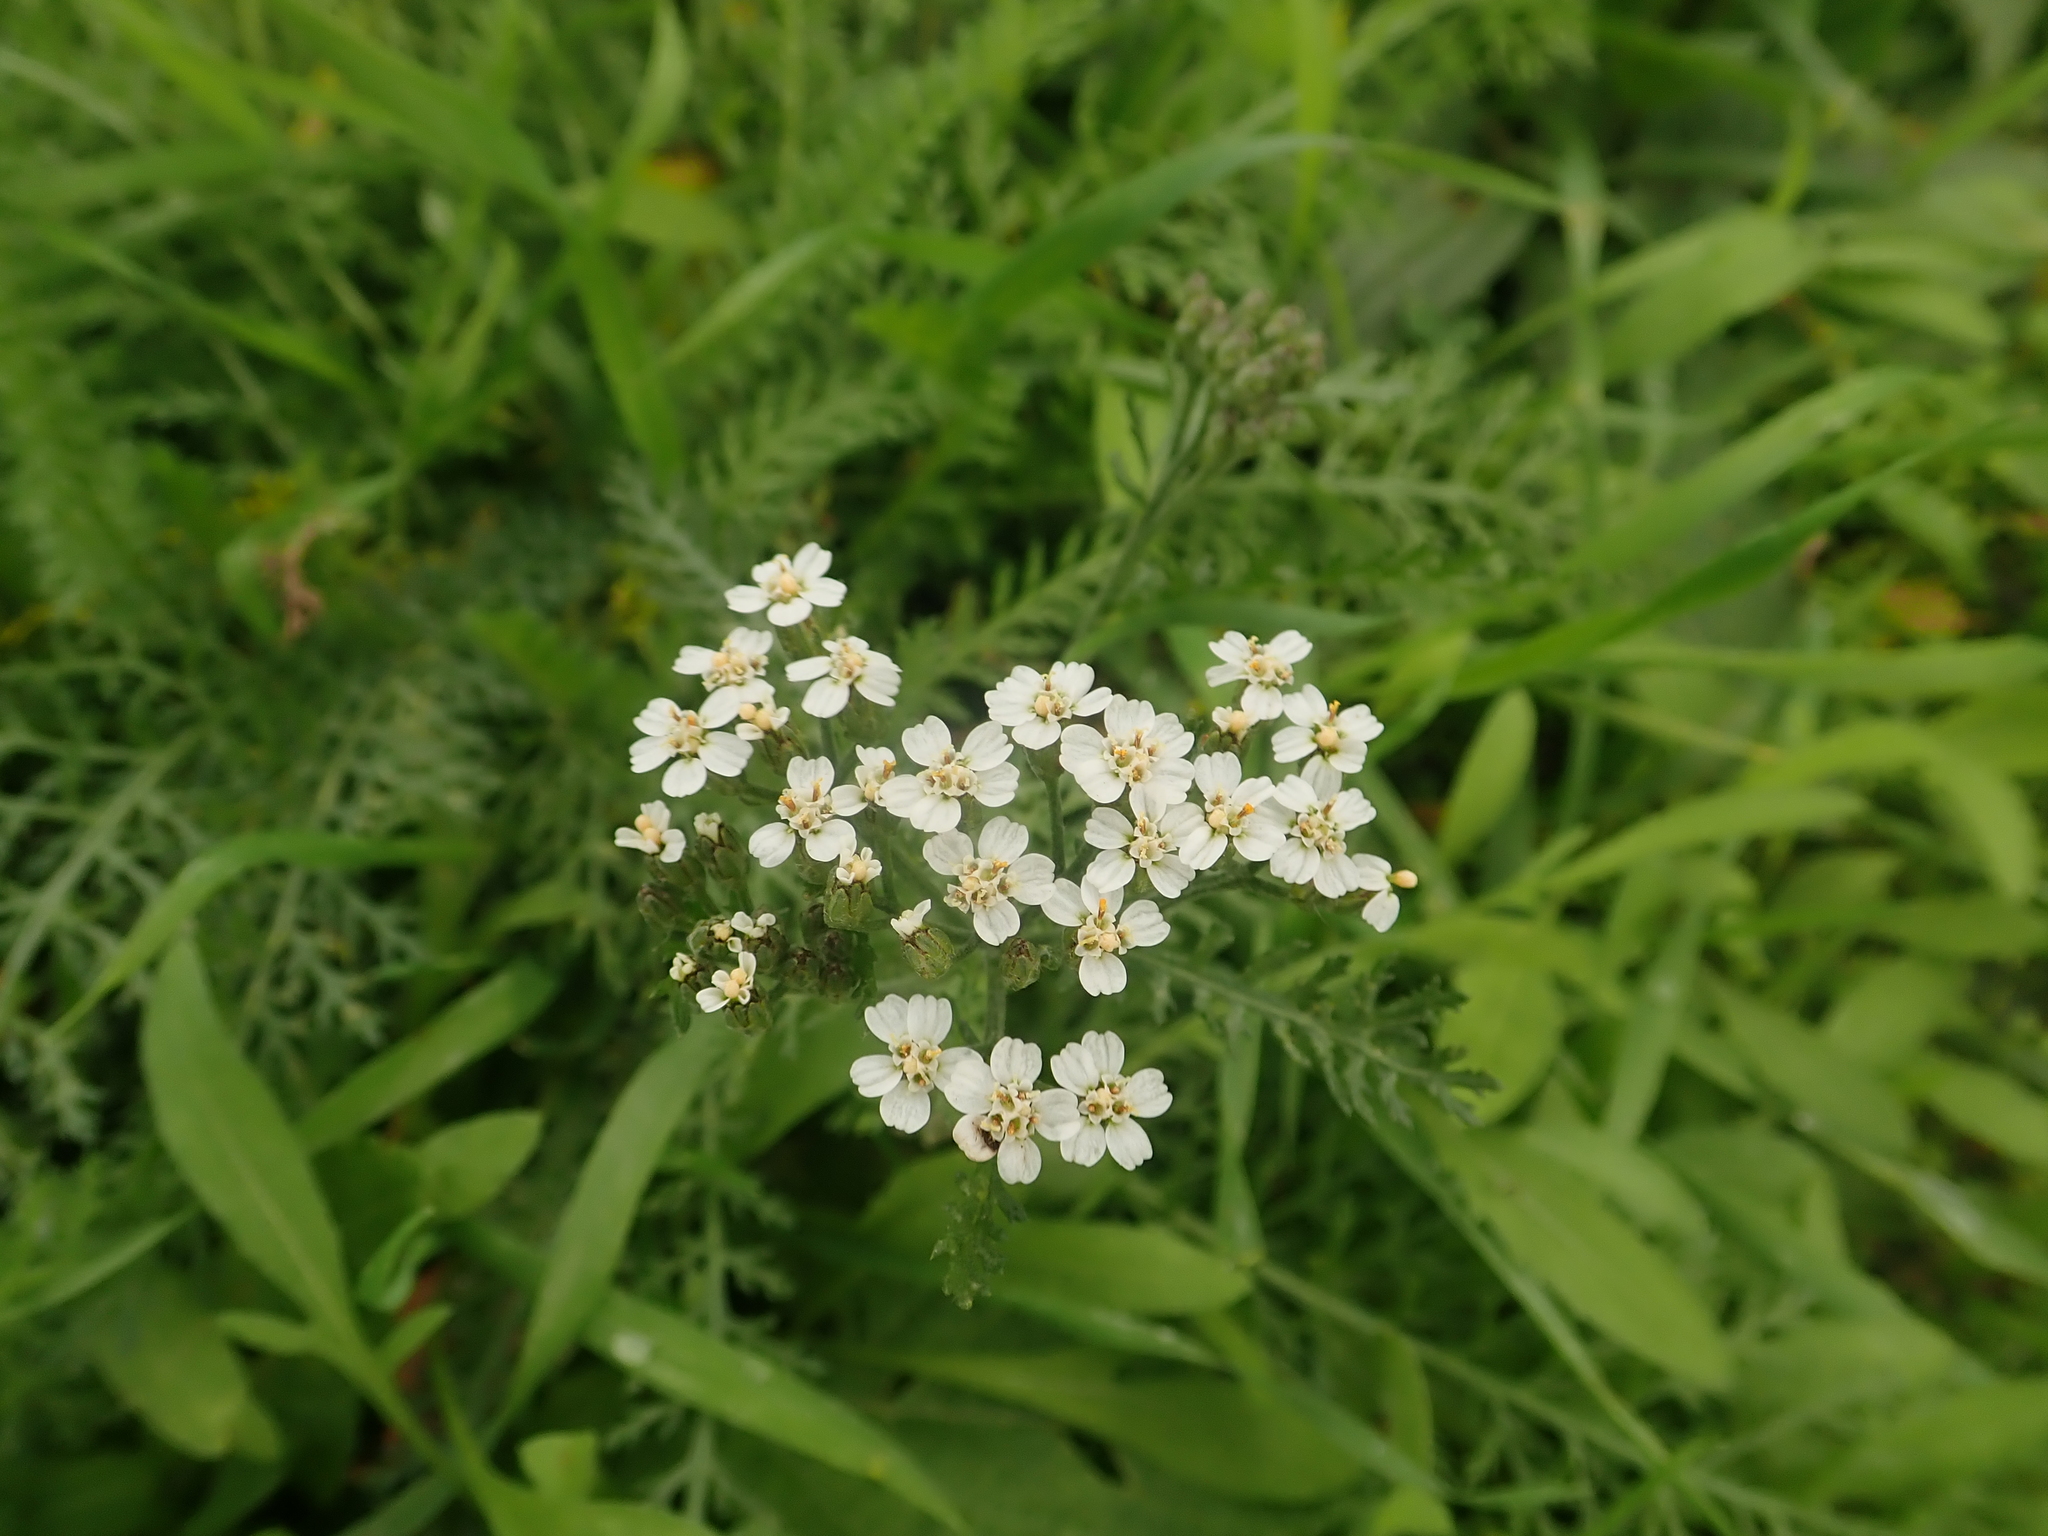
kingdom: Plantae
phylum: Tracheophyta
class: Magnoliopsida
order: Asterales
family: Asteraceae
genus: Achillea
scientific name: Achillea millefolium
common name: Yarrow
